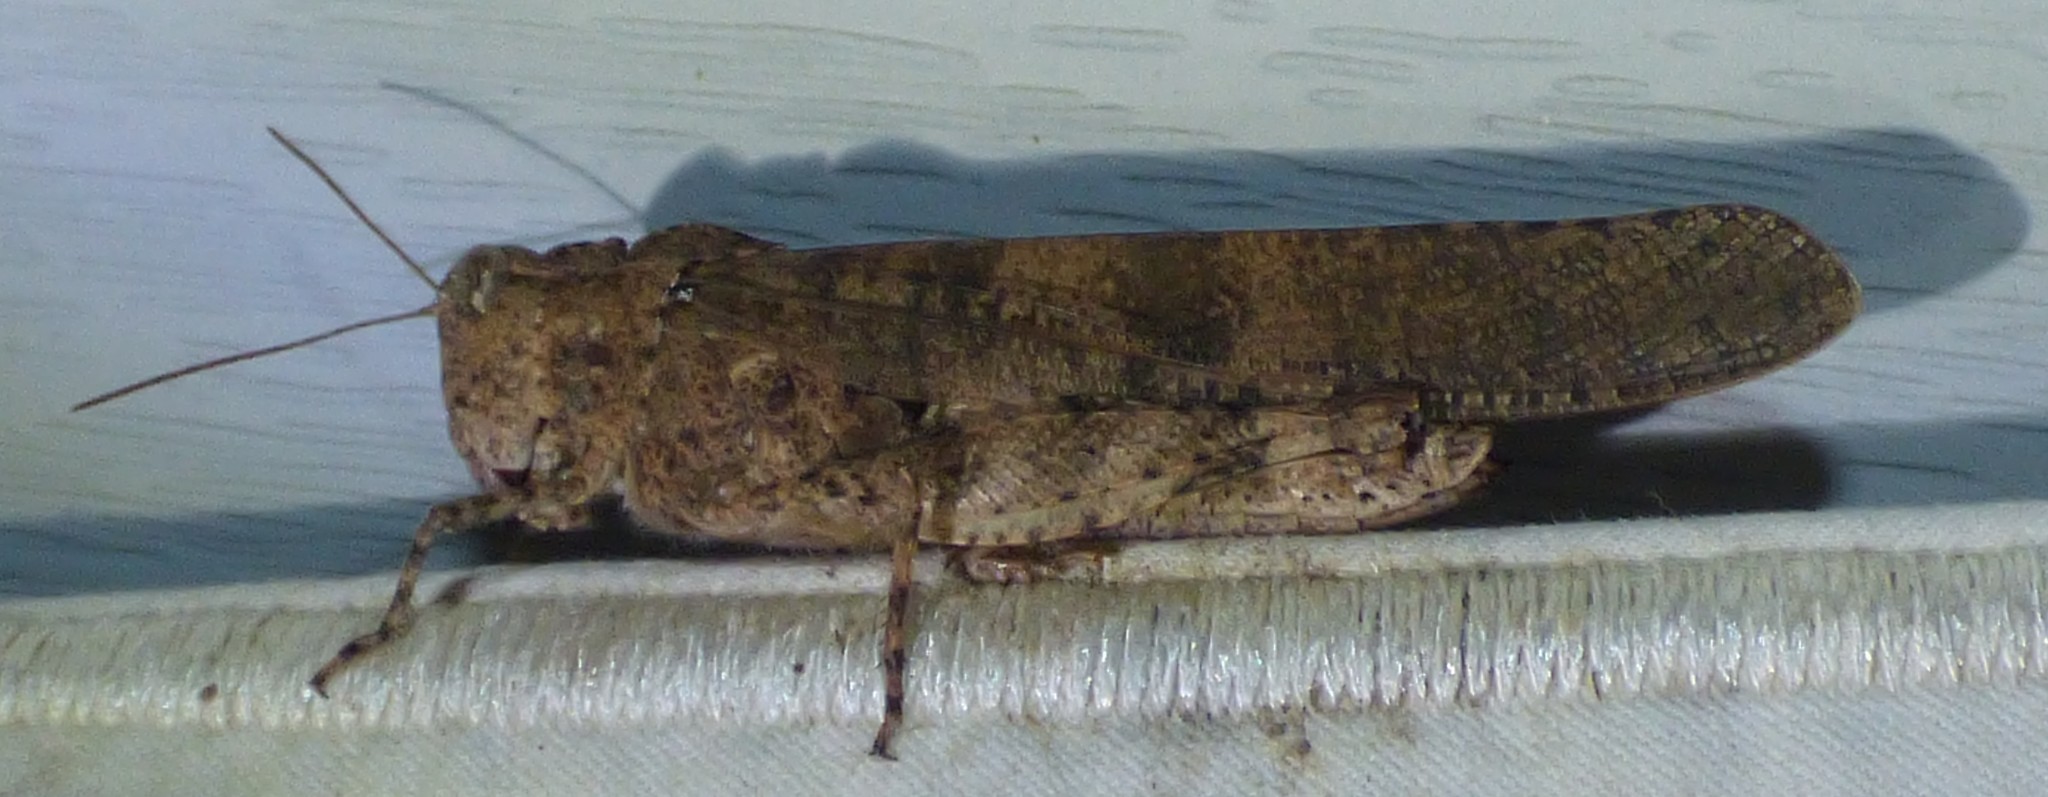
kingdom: Animalia
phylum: Arthropoda
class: Insecta
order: Orthoptera
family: Acrididae
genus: Dissosteira
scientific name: Dissosteira carolina
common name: Carolina grasshopper
